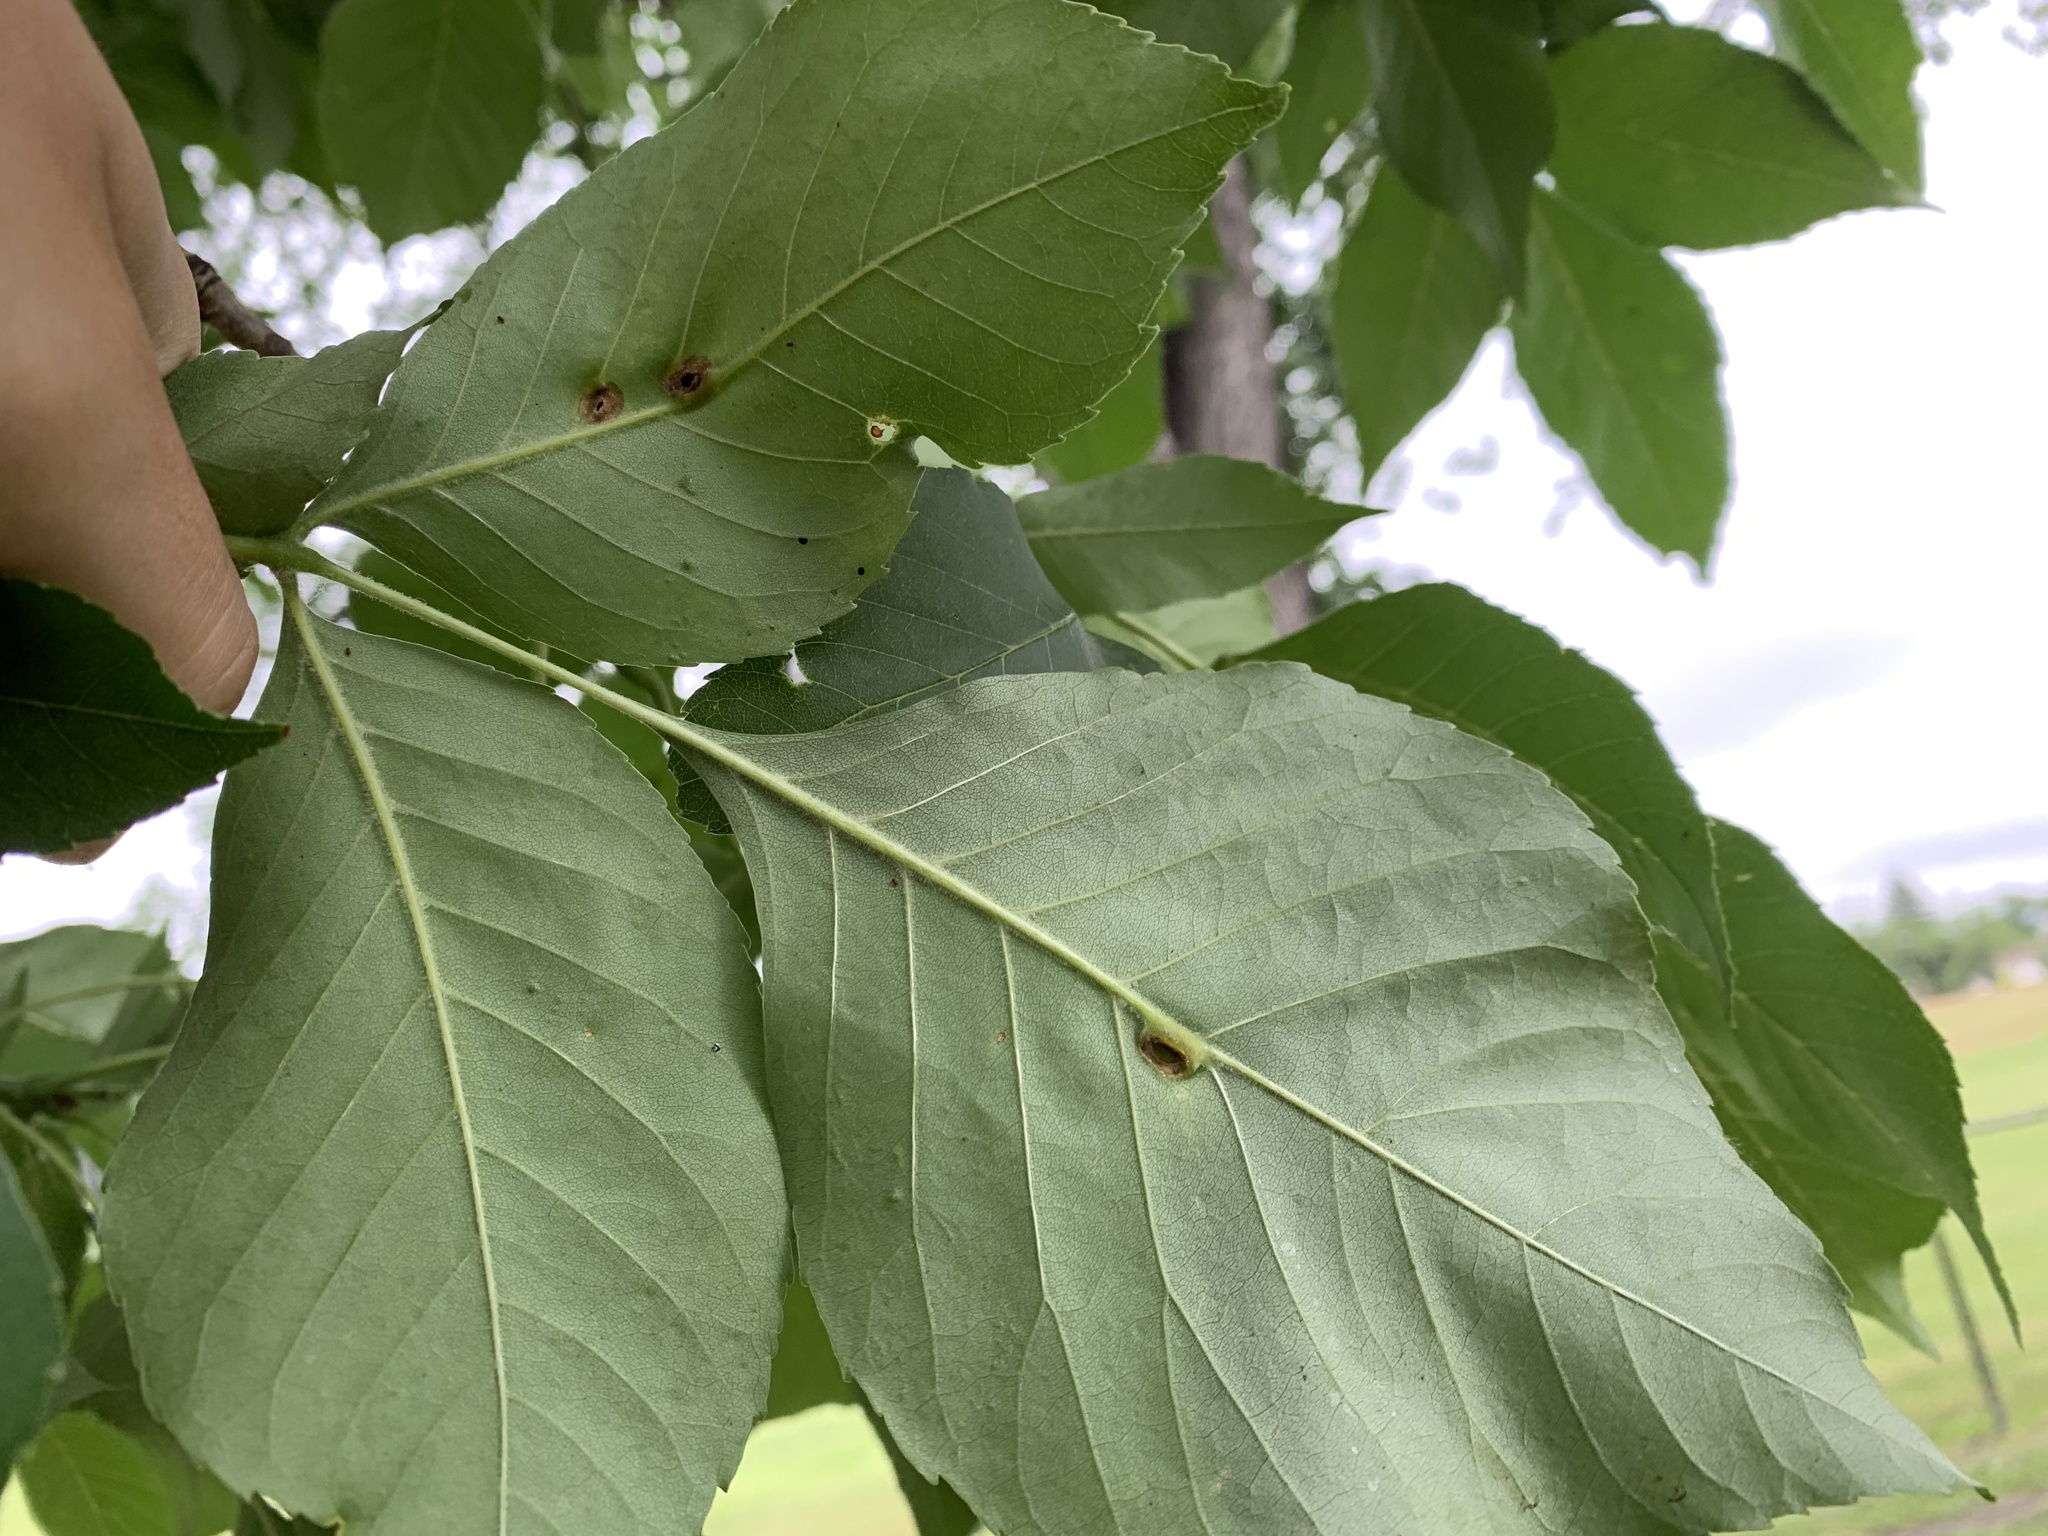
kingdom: Animalia
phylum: Arthropoda
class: Insecta
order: Diptera
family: Cecidomyiidae
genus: Dasineura
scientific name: Dasineura pellex
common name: Ash bullet gall midge
